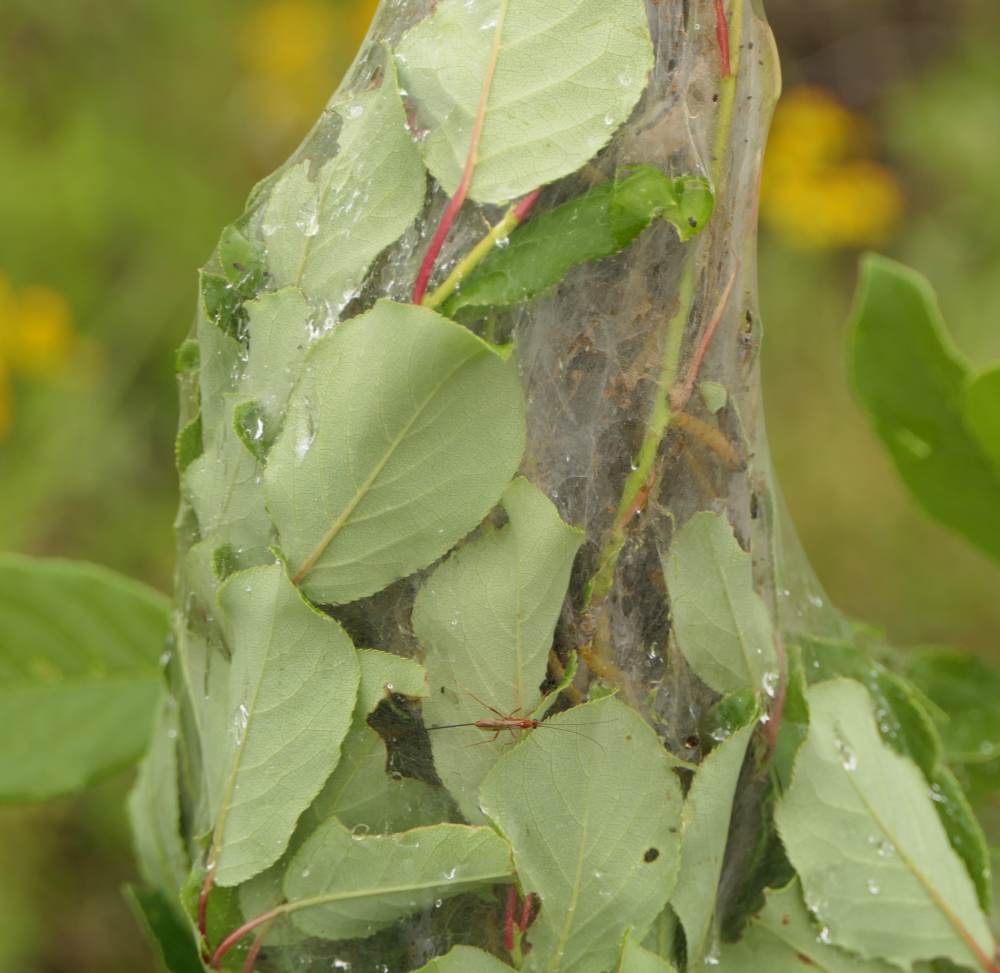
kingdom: Animalia
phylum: Arthropoda
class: Insecta
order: Lepidoptera
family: Tortricidae
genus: Archips
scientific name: Archips cerasivorana
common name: Uglynest caterpillar
